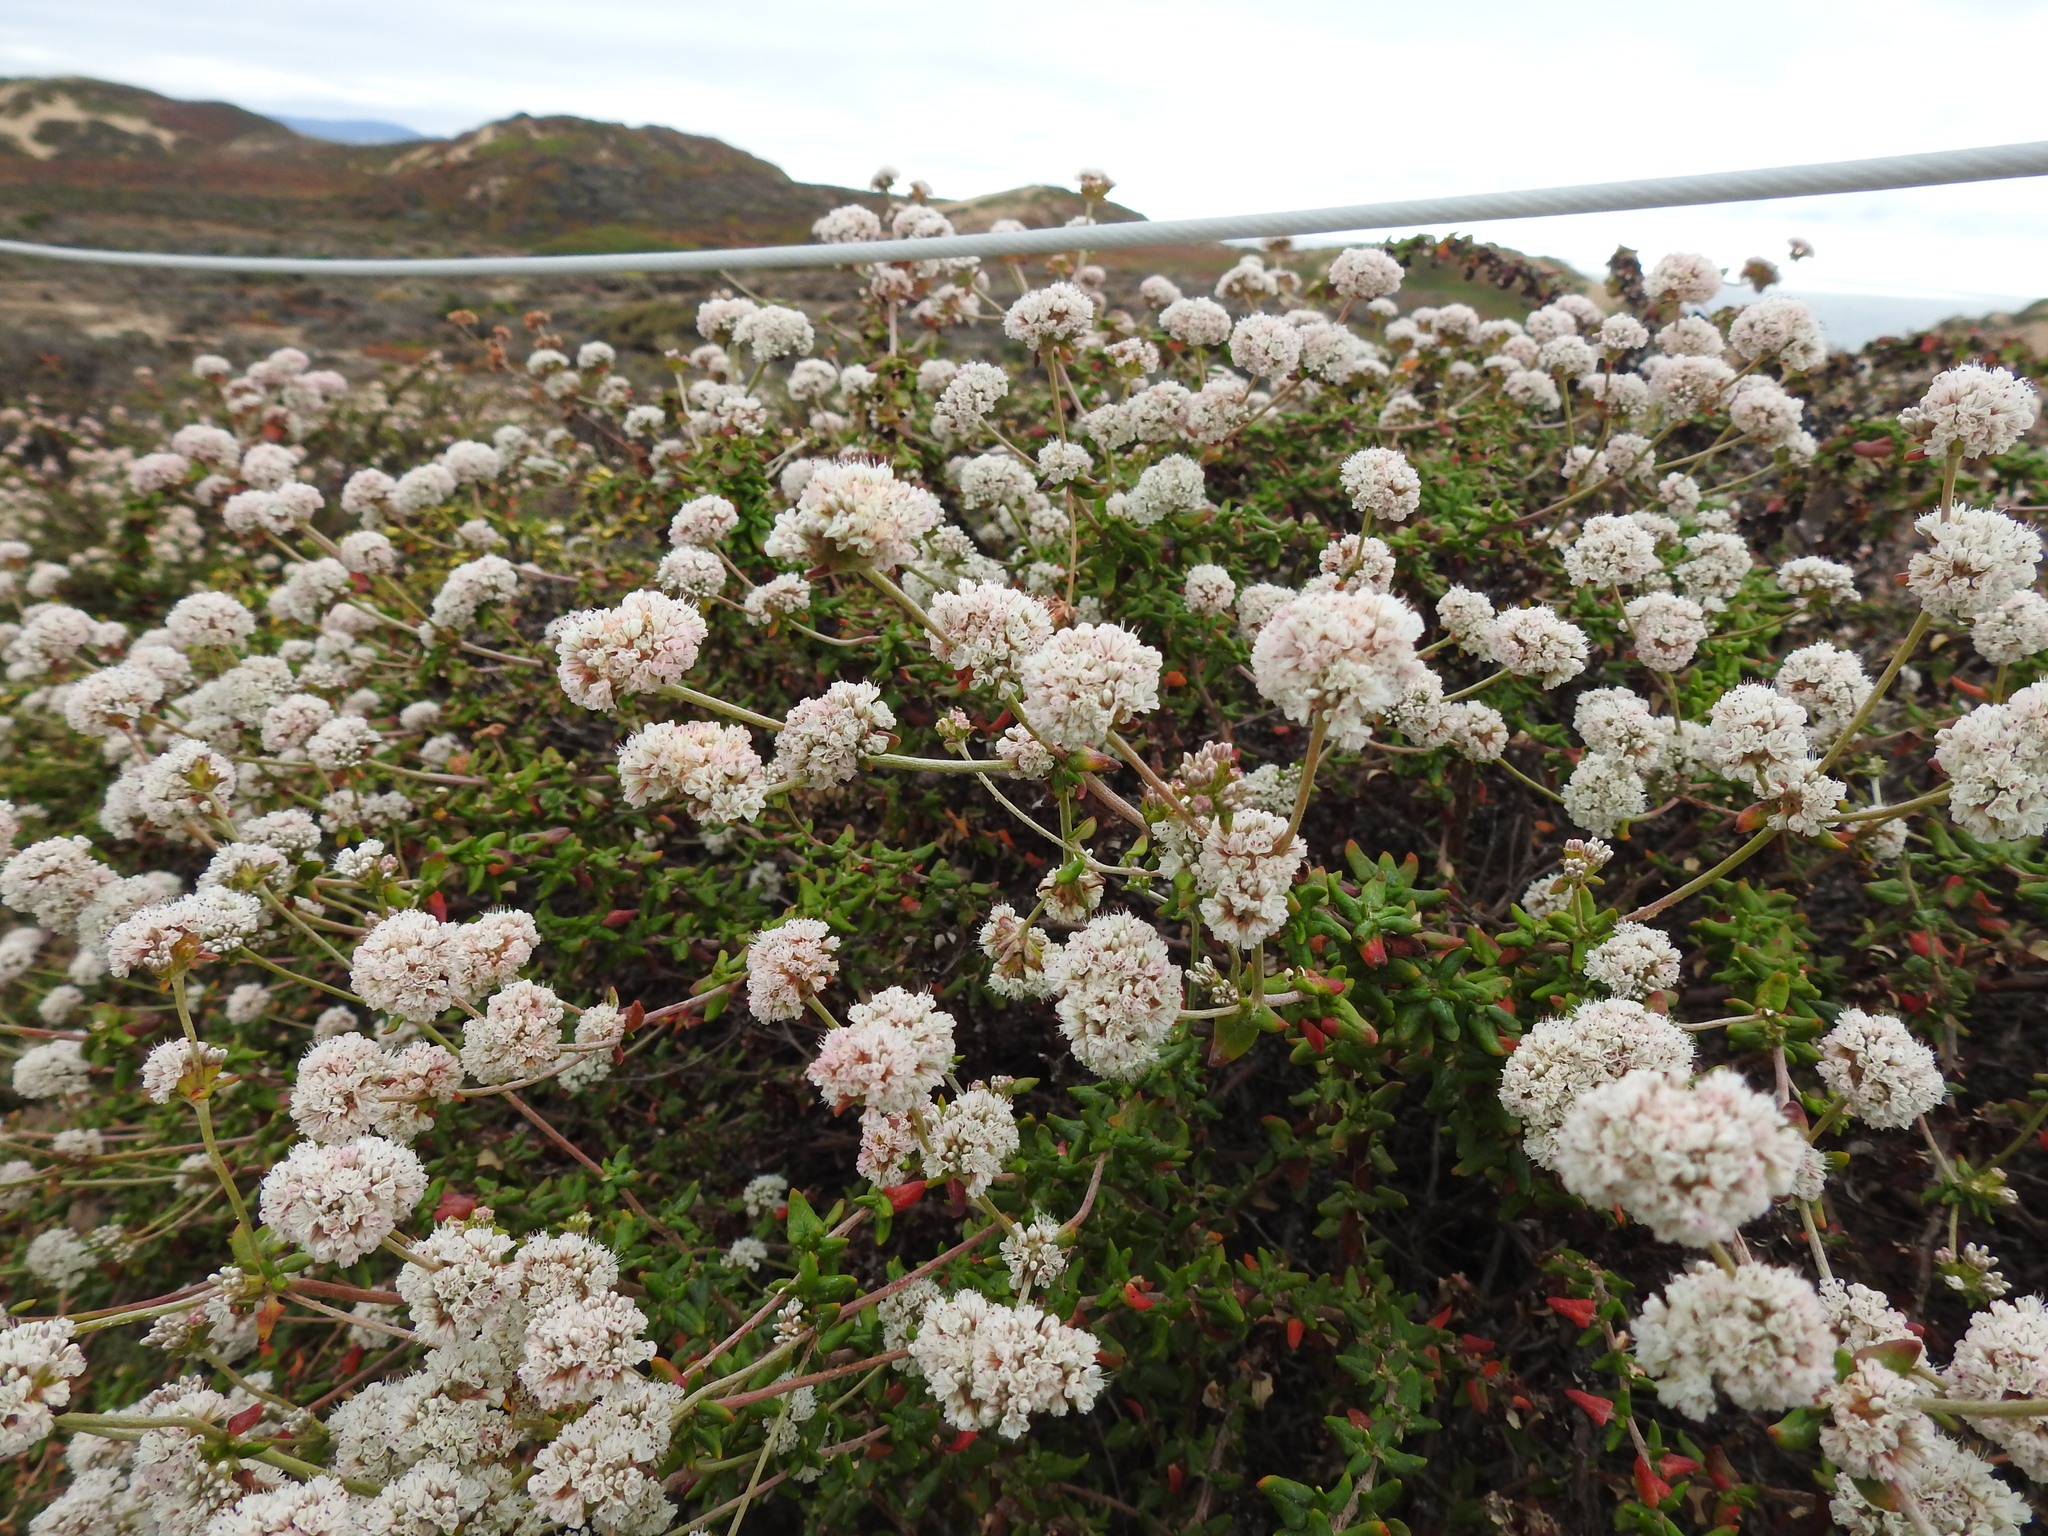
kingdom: Plantae
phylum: Tracheophyta
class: Magnoliopsida
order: Caryophyllales
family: Polygonaceae
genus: Eriogonum
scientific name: Eriogonum parvifolium
